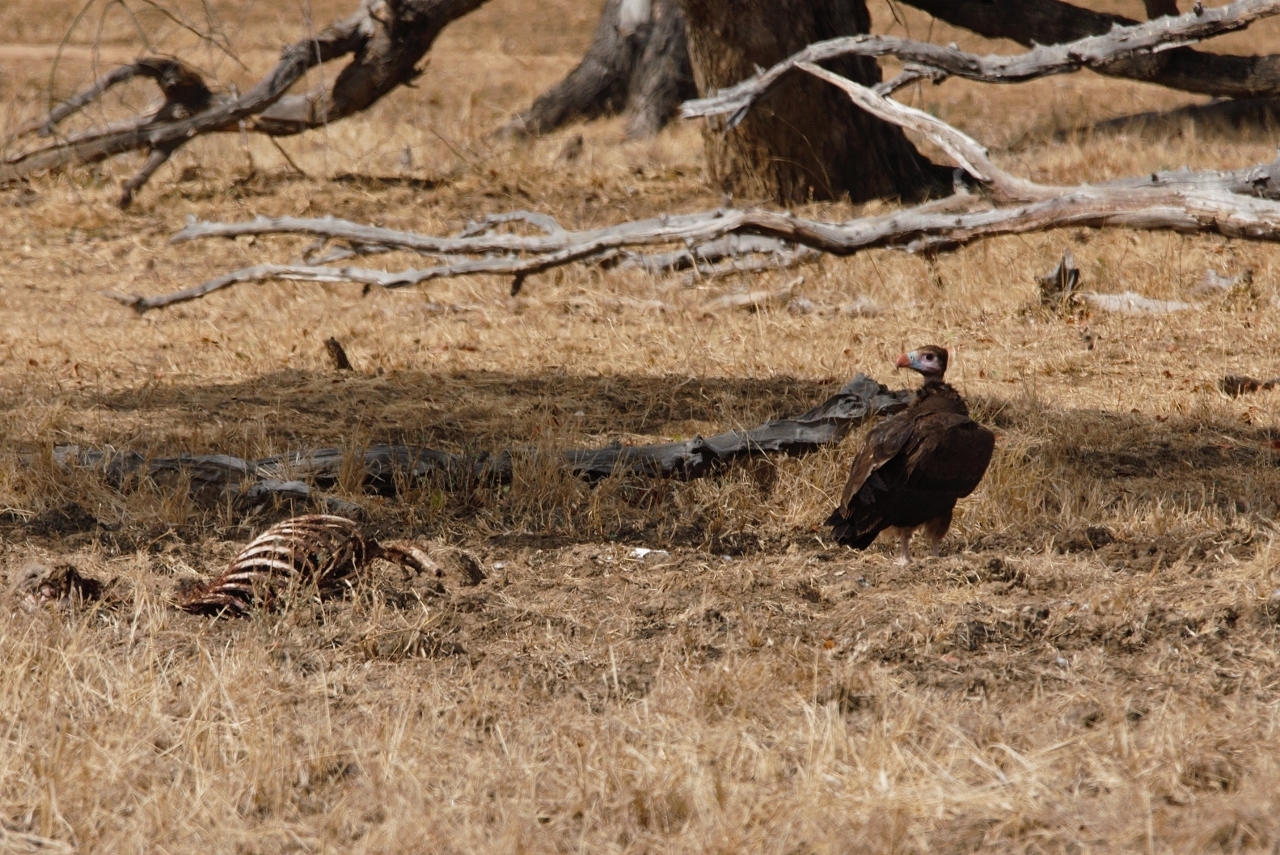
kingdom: Animalia
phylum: Chordata
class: Aves
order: Accipitriformes
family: Accipitridae
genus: Trigonoceps
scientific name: Trigonoceps occipitalis
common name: White-headed vulture
